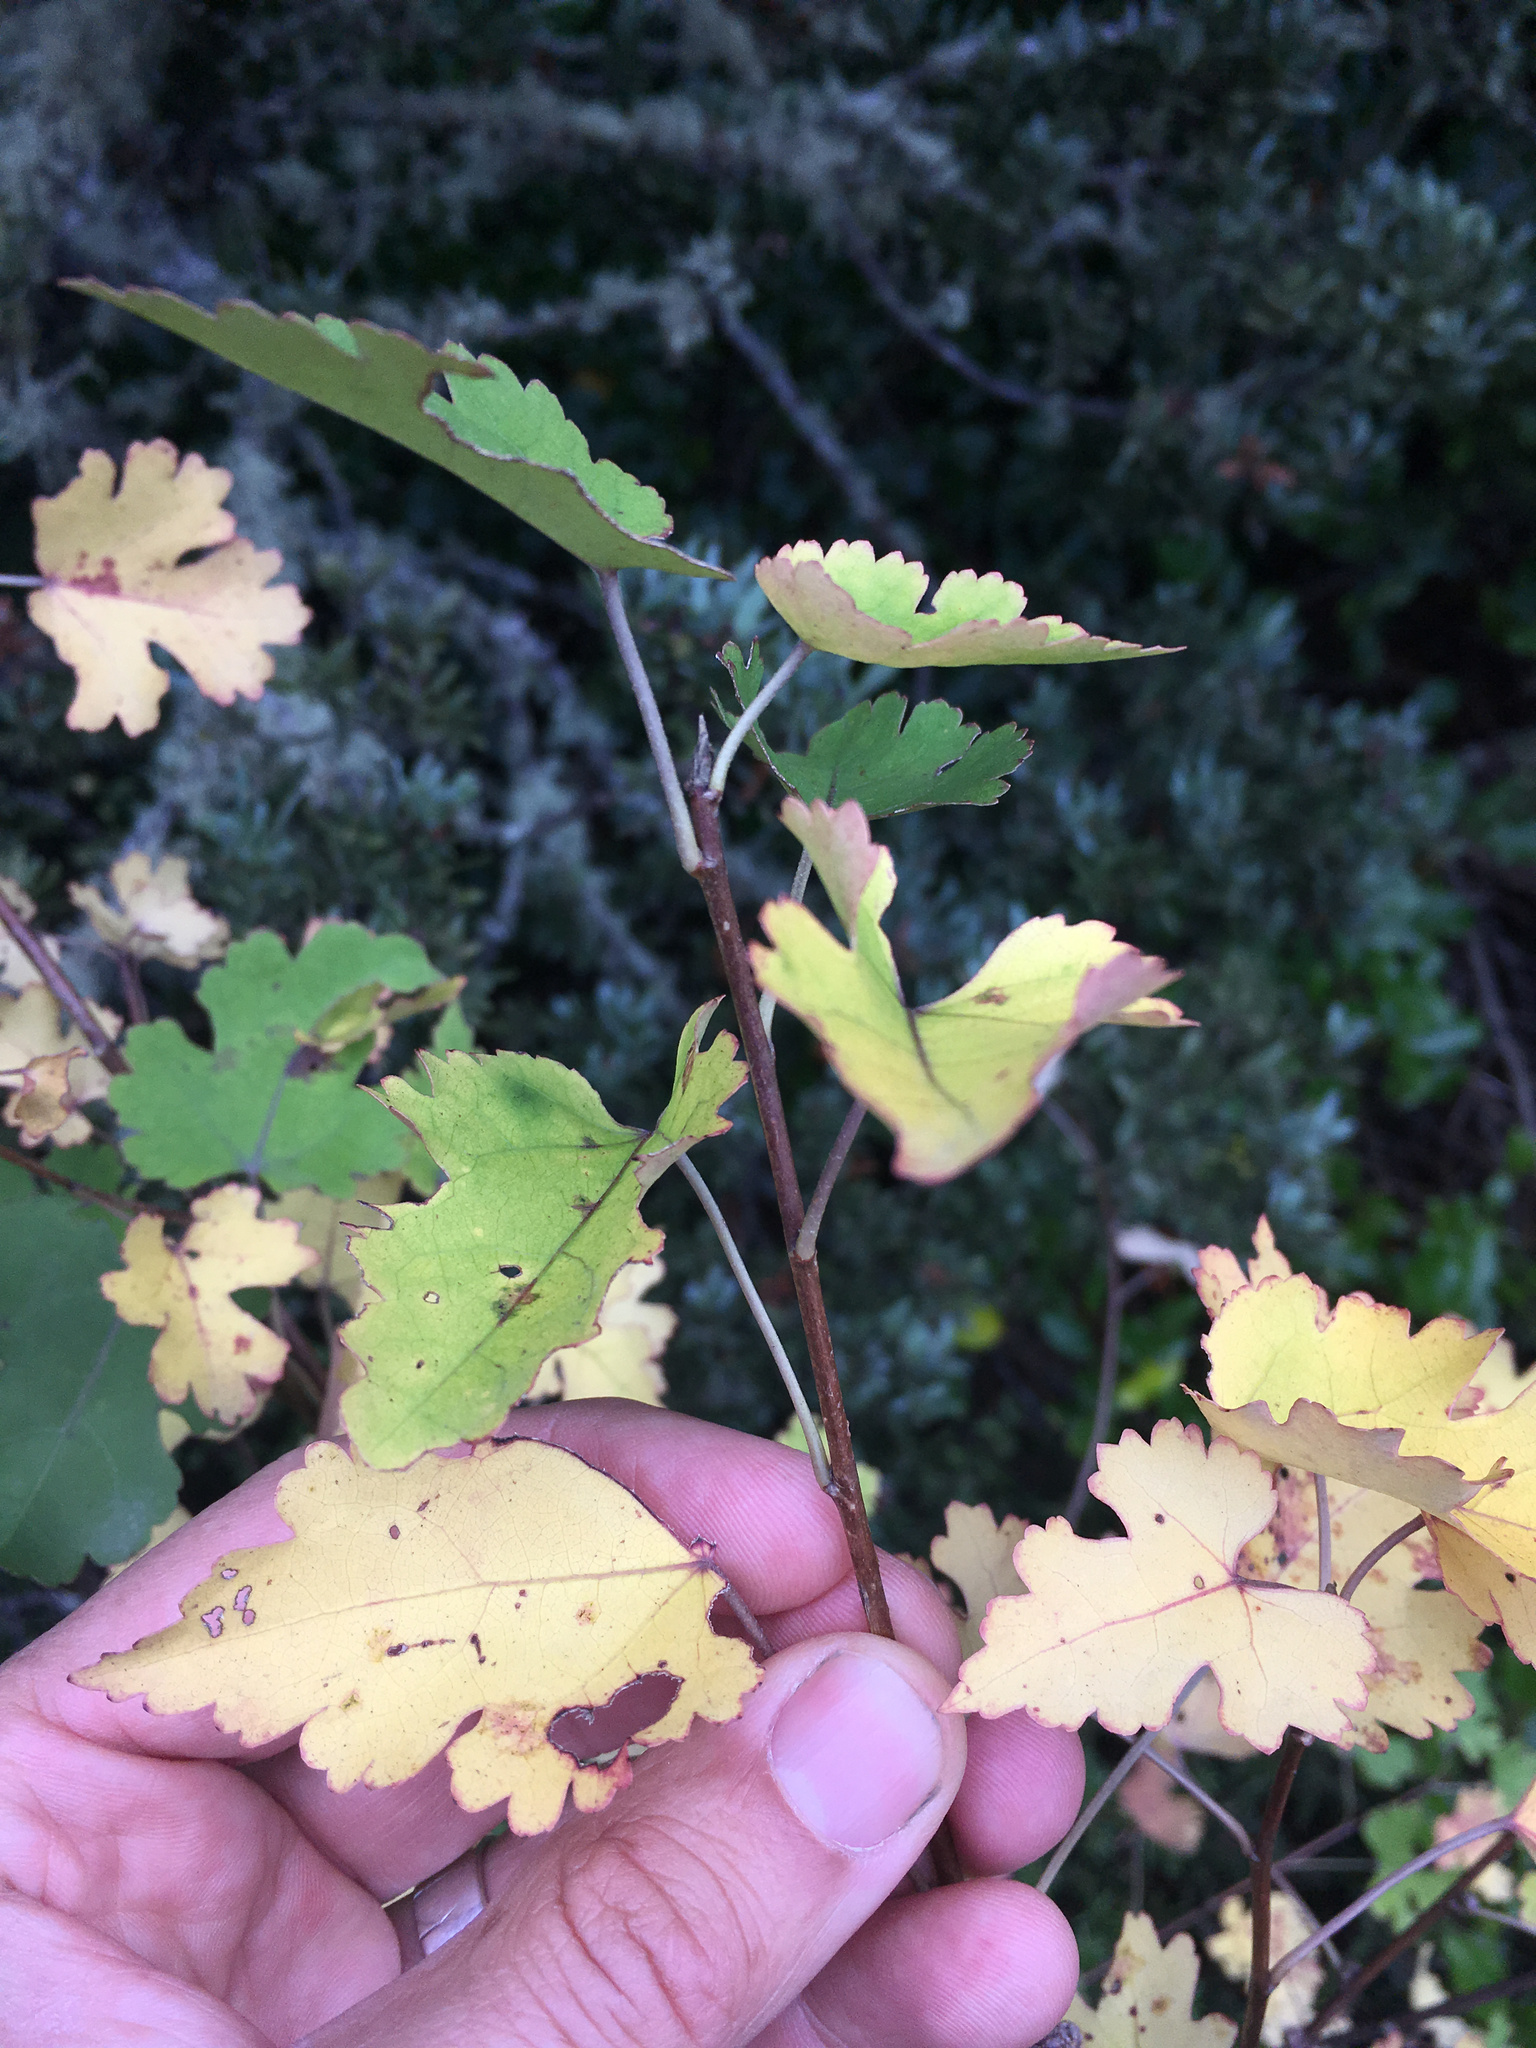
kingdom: Plantae
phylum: Tracheophyta
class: Magnoliopsida
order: Malvales
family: Malvaceae
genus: Hoheria
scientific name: Hoheria glabrata
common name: Mountain-ribbon
